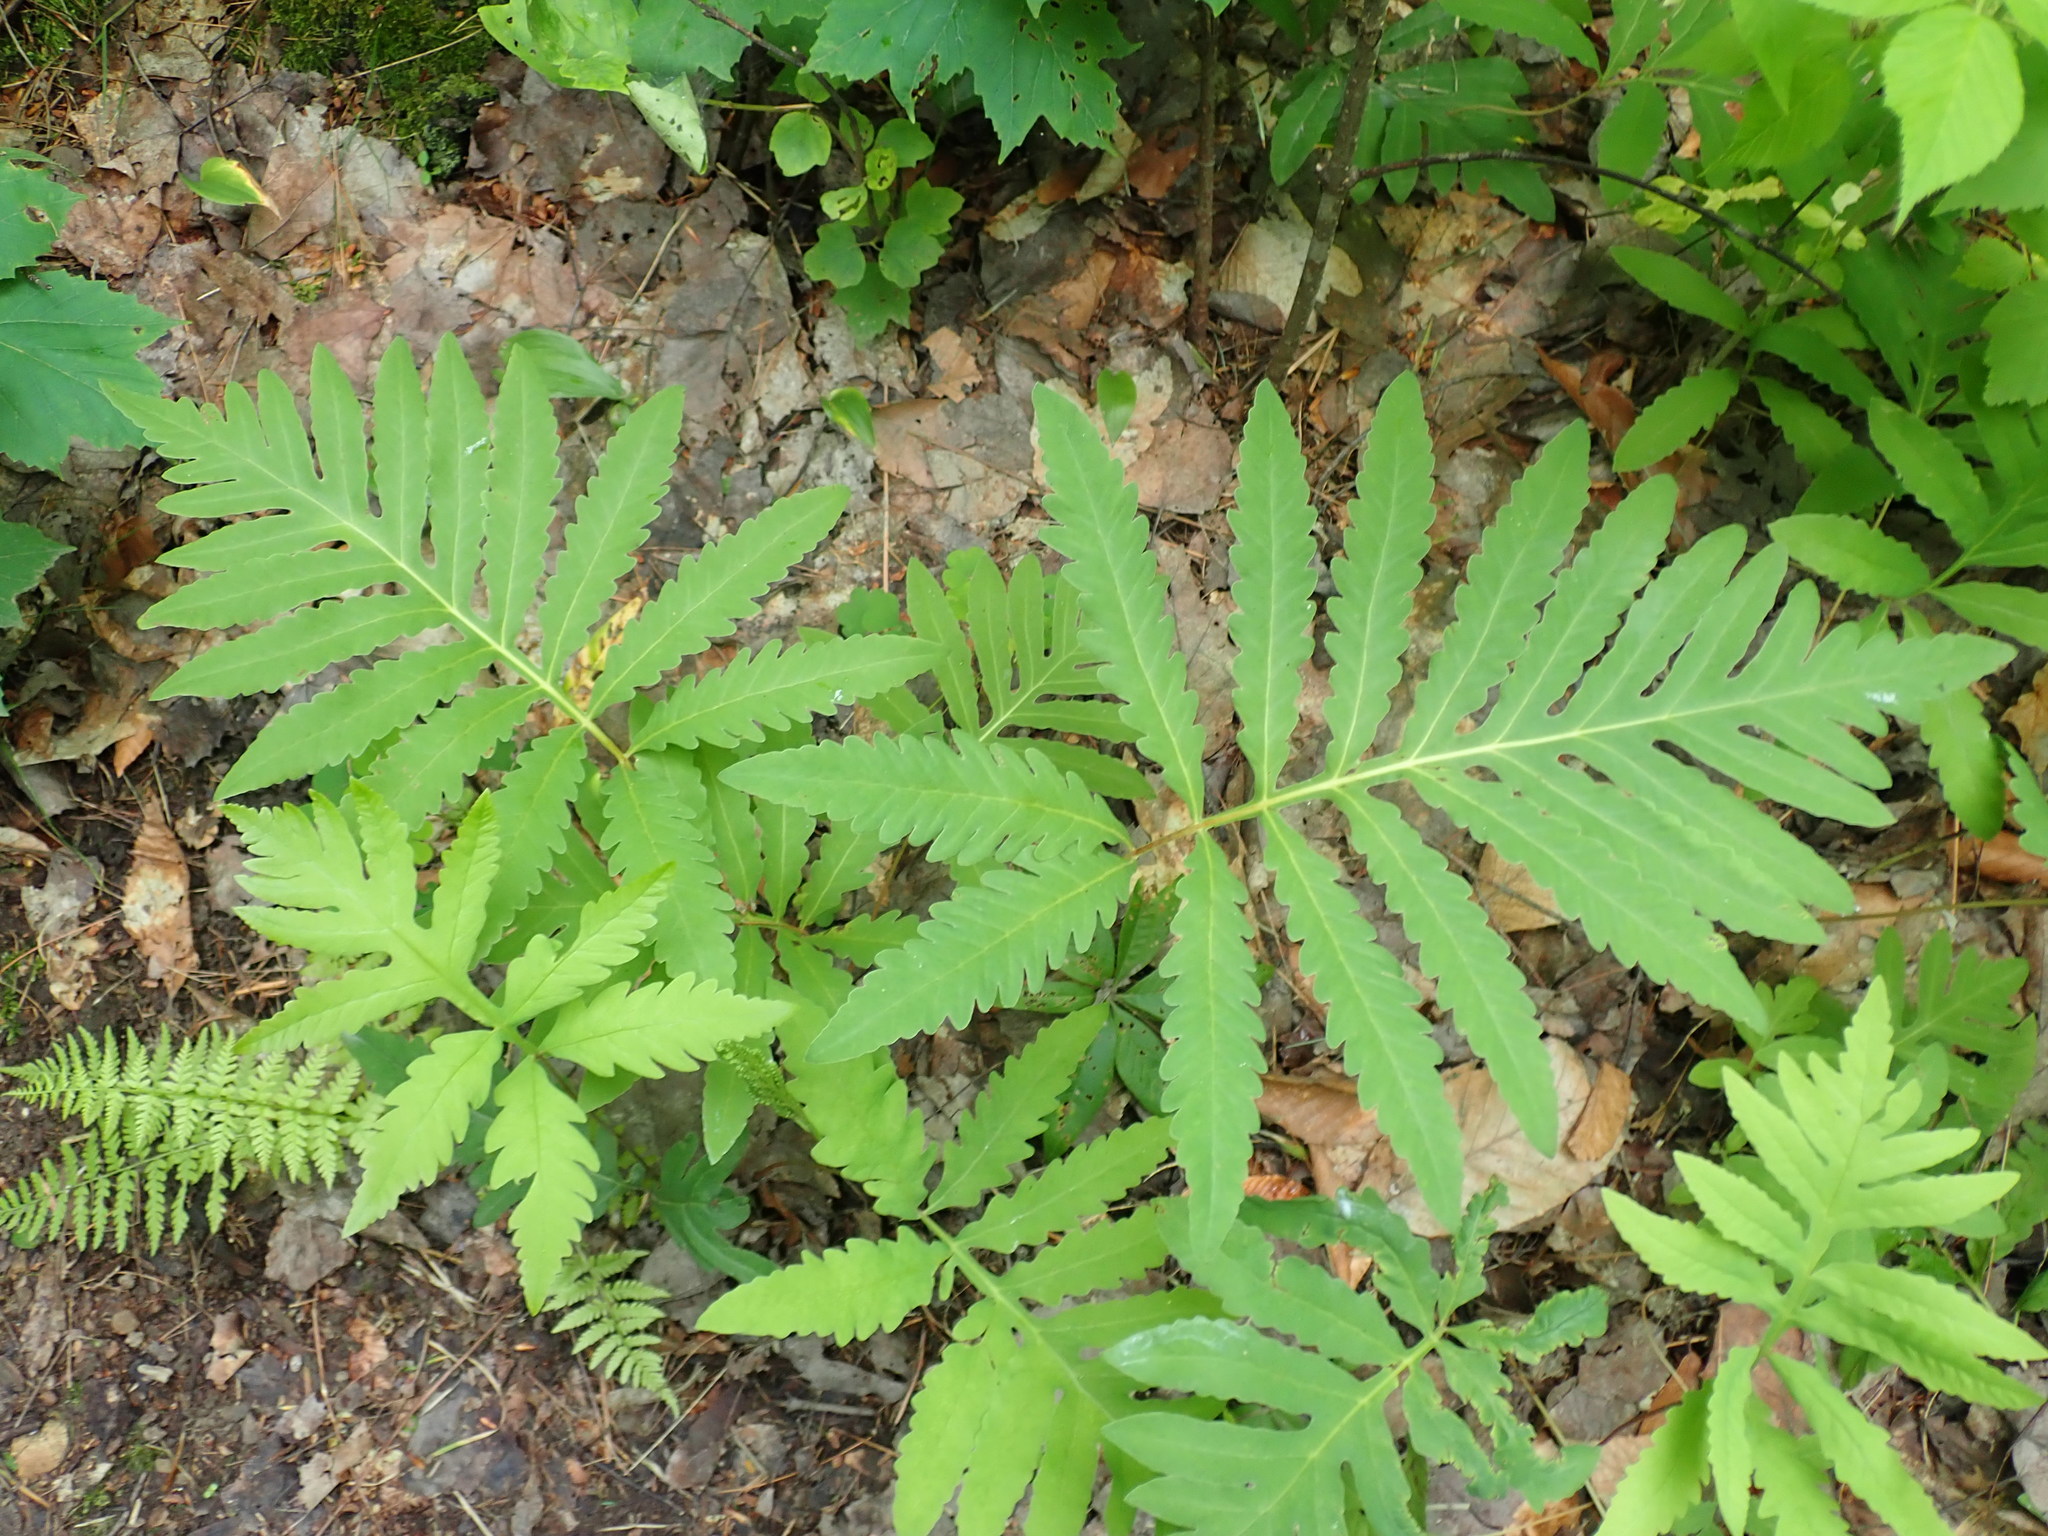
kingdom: Plantae
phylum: Tracheophyta
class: Polypodiopsida
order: Polypodiales
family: Onocleaceae
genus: Onoclea
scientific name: Onoclea sensibilis
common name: Sensitive fern
